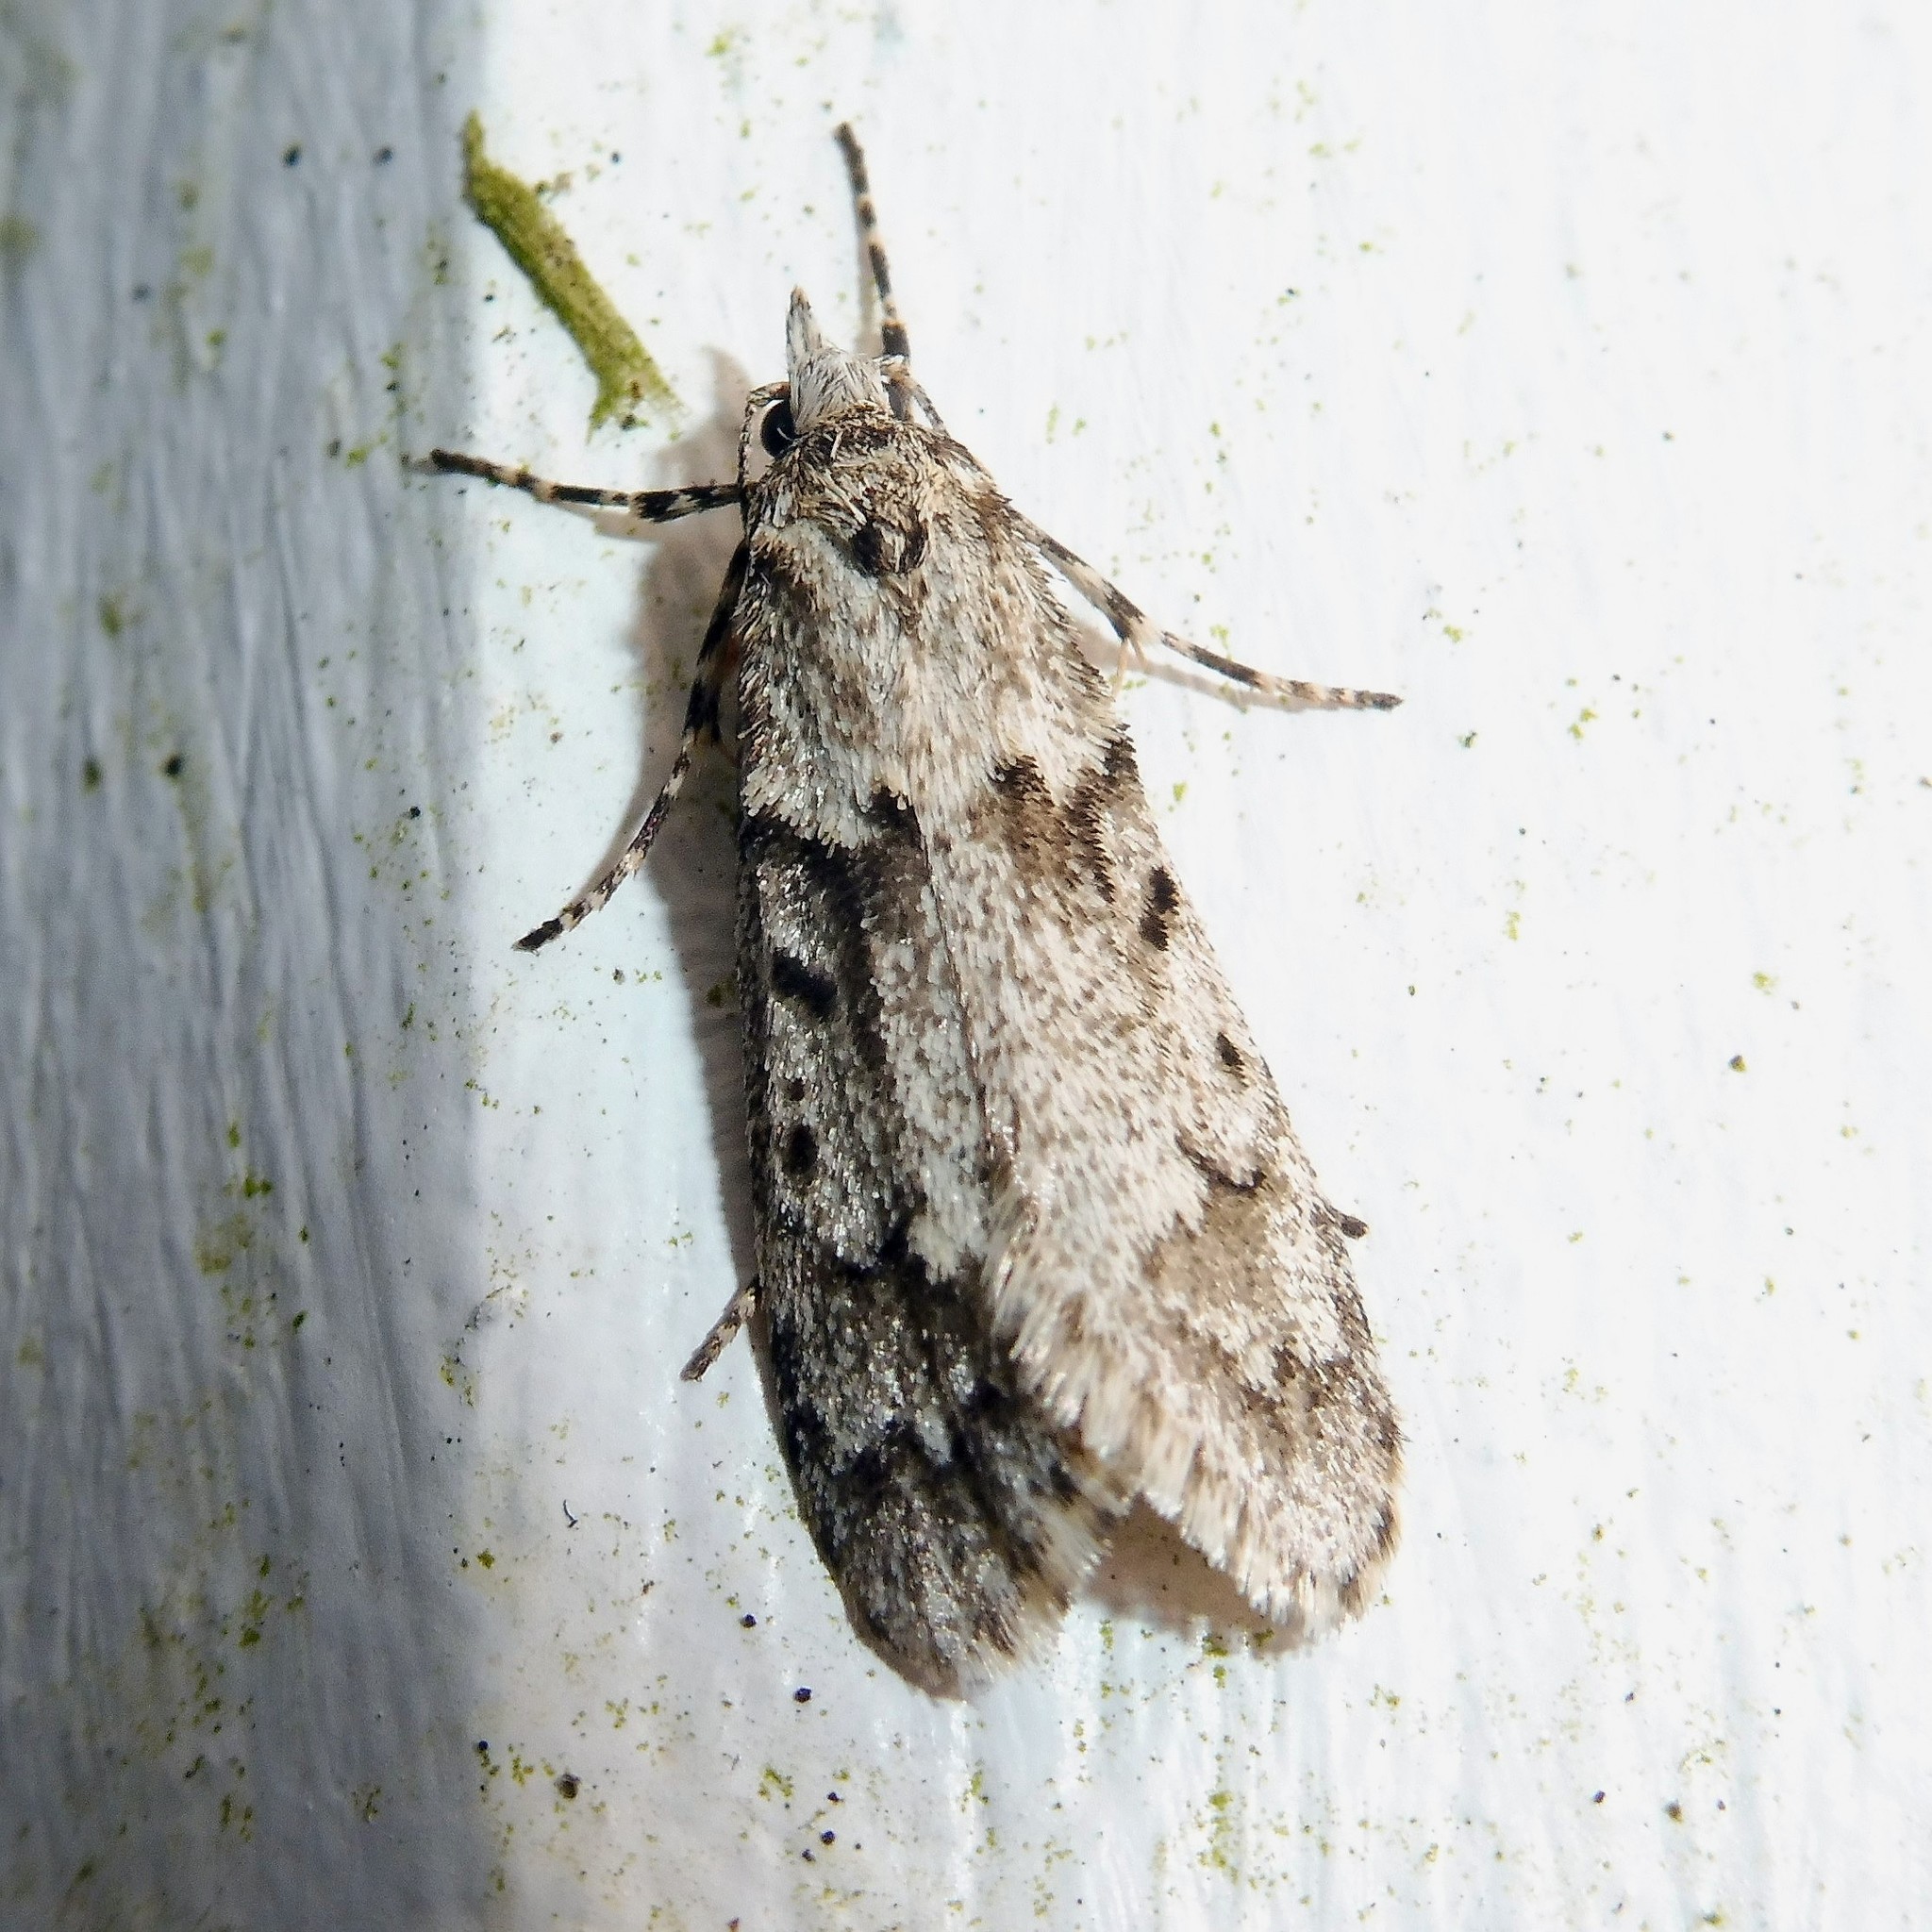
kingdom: Animalia
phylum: Arthropoda
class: Insecta
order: Lepidoptera
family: Lypusidae
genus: Diurnea
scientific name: Diurnea fagella
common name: March tubic
